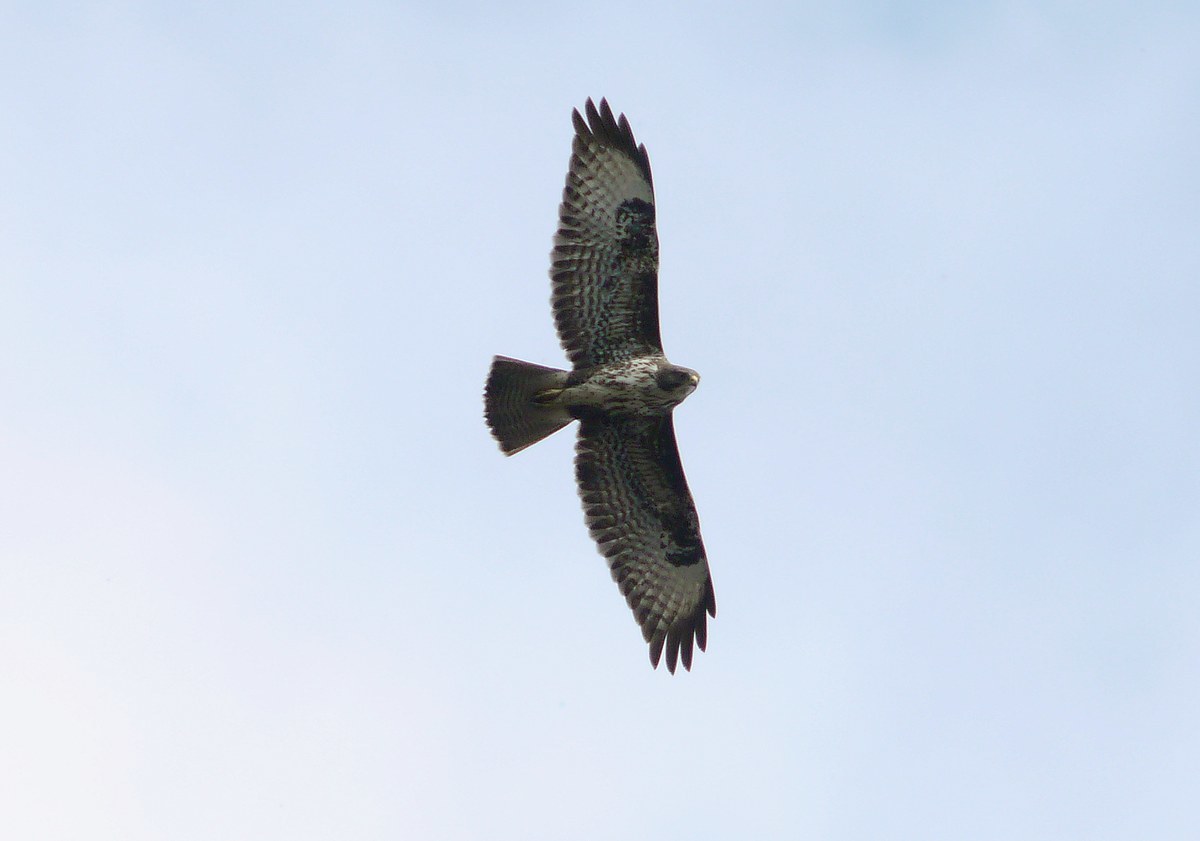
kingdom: Animalia
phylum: Chordata
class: Aves
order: Accipitriformes
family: Accipitridae
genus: Buteo
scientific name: Buteo buteo
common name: Common buzzard
